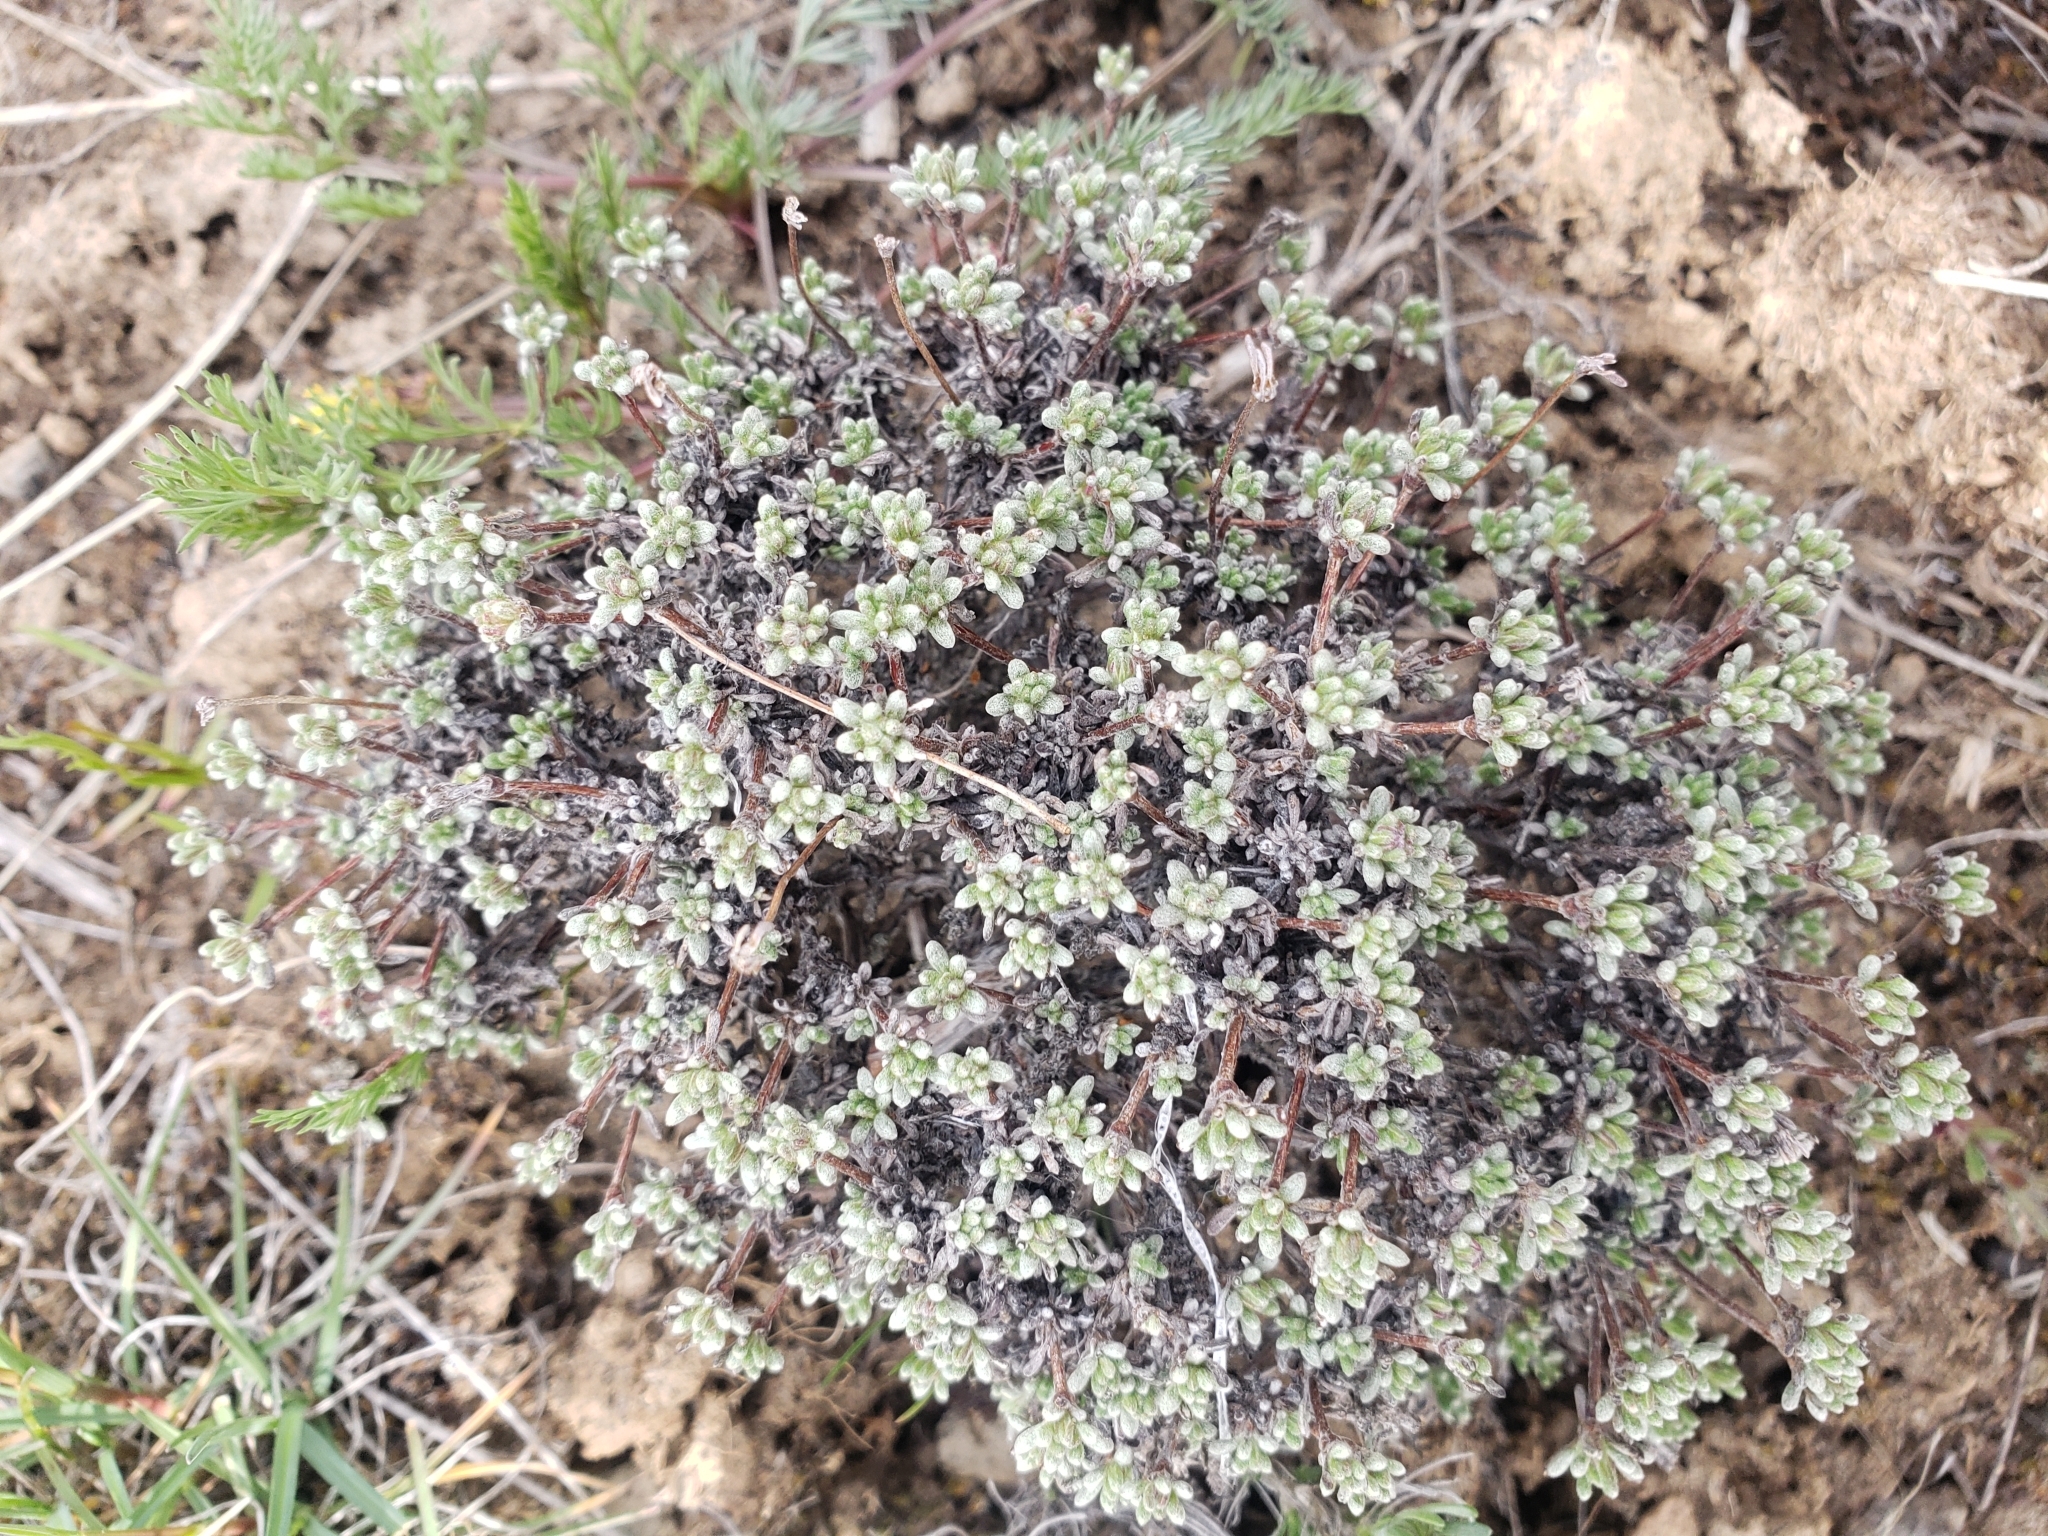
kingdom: Plantae
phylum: Tracheophyta
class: Magnoliopsida
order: Caryophyllales
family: Polygonaceae
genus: Eriogonum
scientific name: Eriogonum thymoides
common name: Thyme-leaf wild buckwheat
